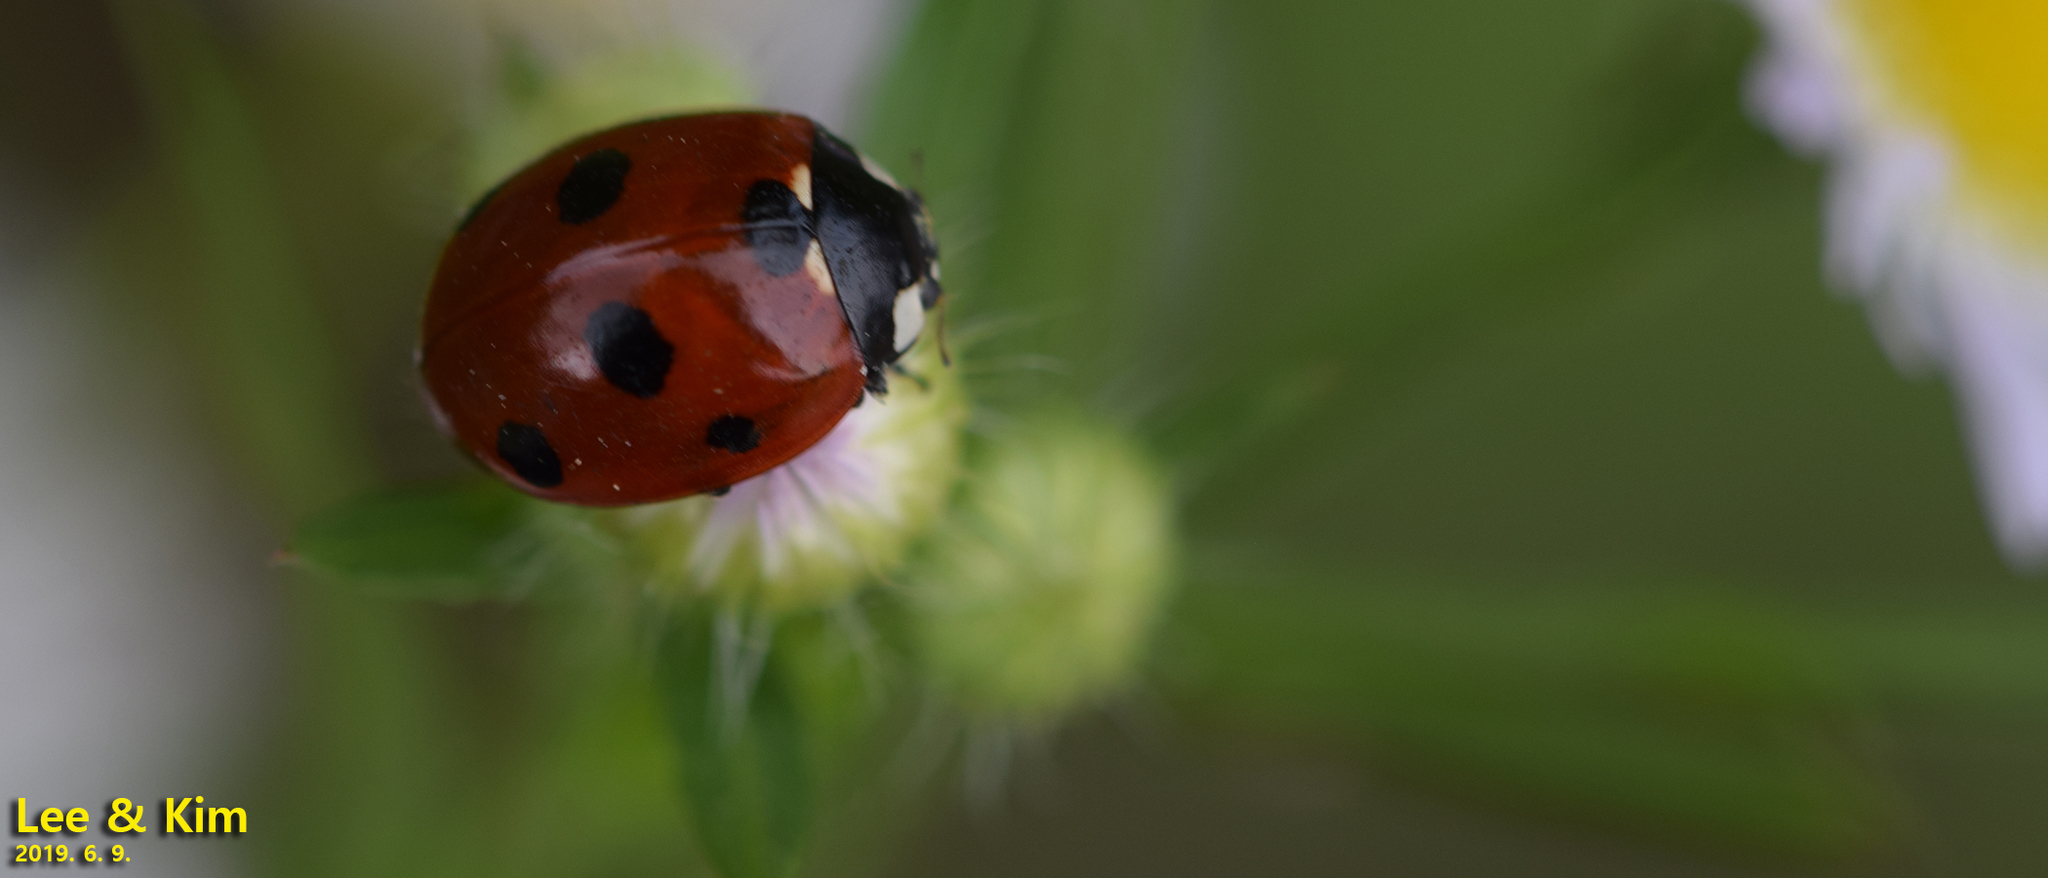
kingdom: Animalia
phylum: Arthropoda
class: Insecta
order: Coleoptera
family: Coccinellidae
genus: Coccinella
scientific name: Coccinella septempunctata
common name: Sevenspotted lady beetle
